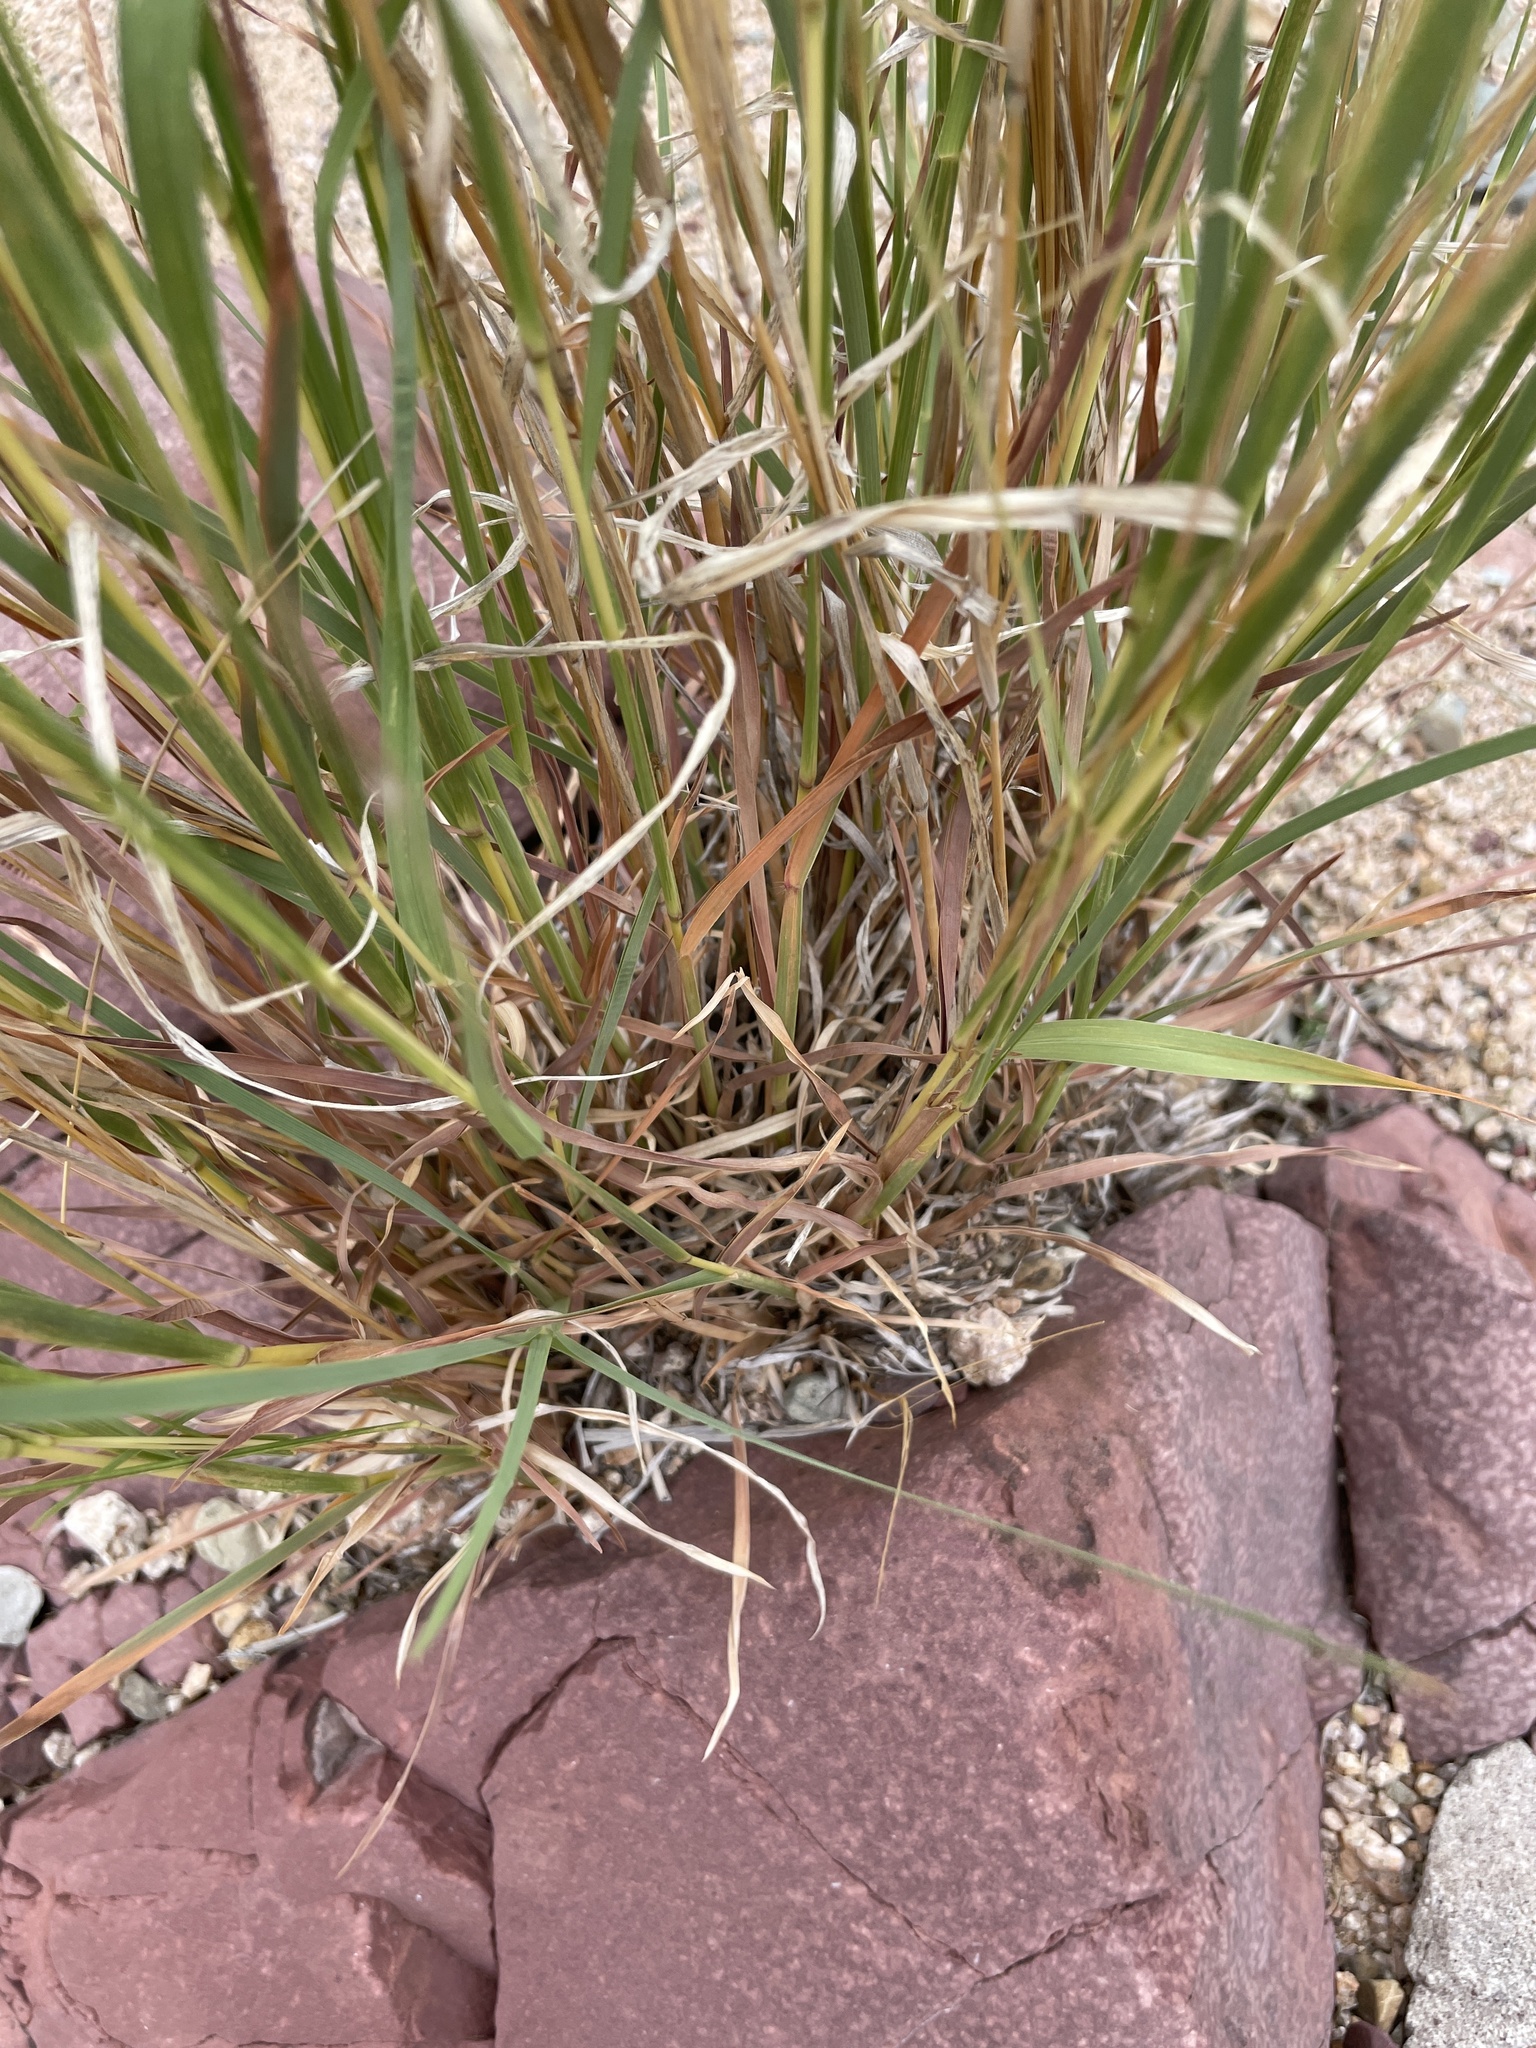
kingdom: Plantae
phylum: Tracheophyta
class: Liliopsida
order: Poales
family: Poaceae
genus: Heteropogon
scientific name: Heteropogon contortus
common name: Tanglehead
